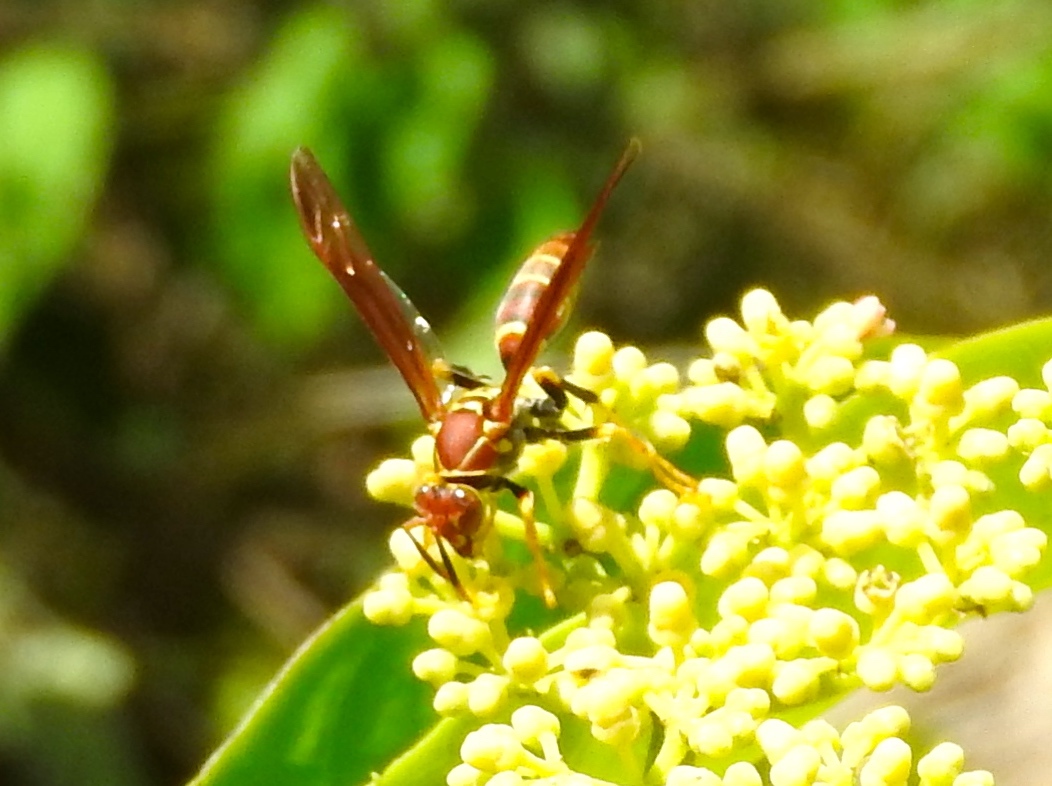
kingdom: Animalia
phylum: Arthropoda
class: Insecta
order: Hymenoptera
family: Eumenidae
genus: Polistes
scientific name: Polistes instabilis
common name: Unstable paper wasp
